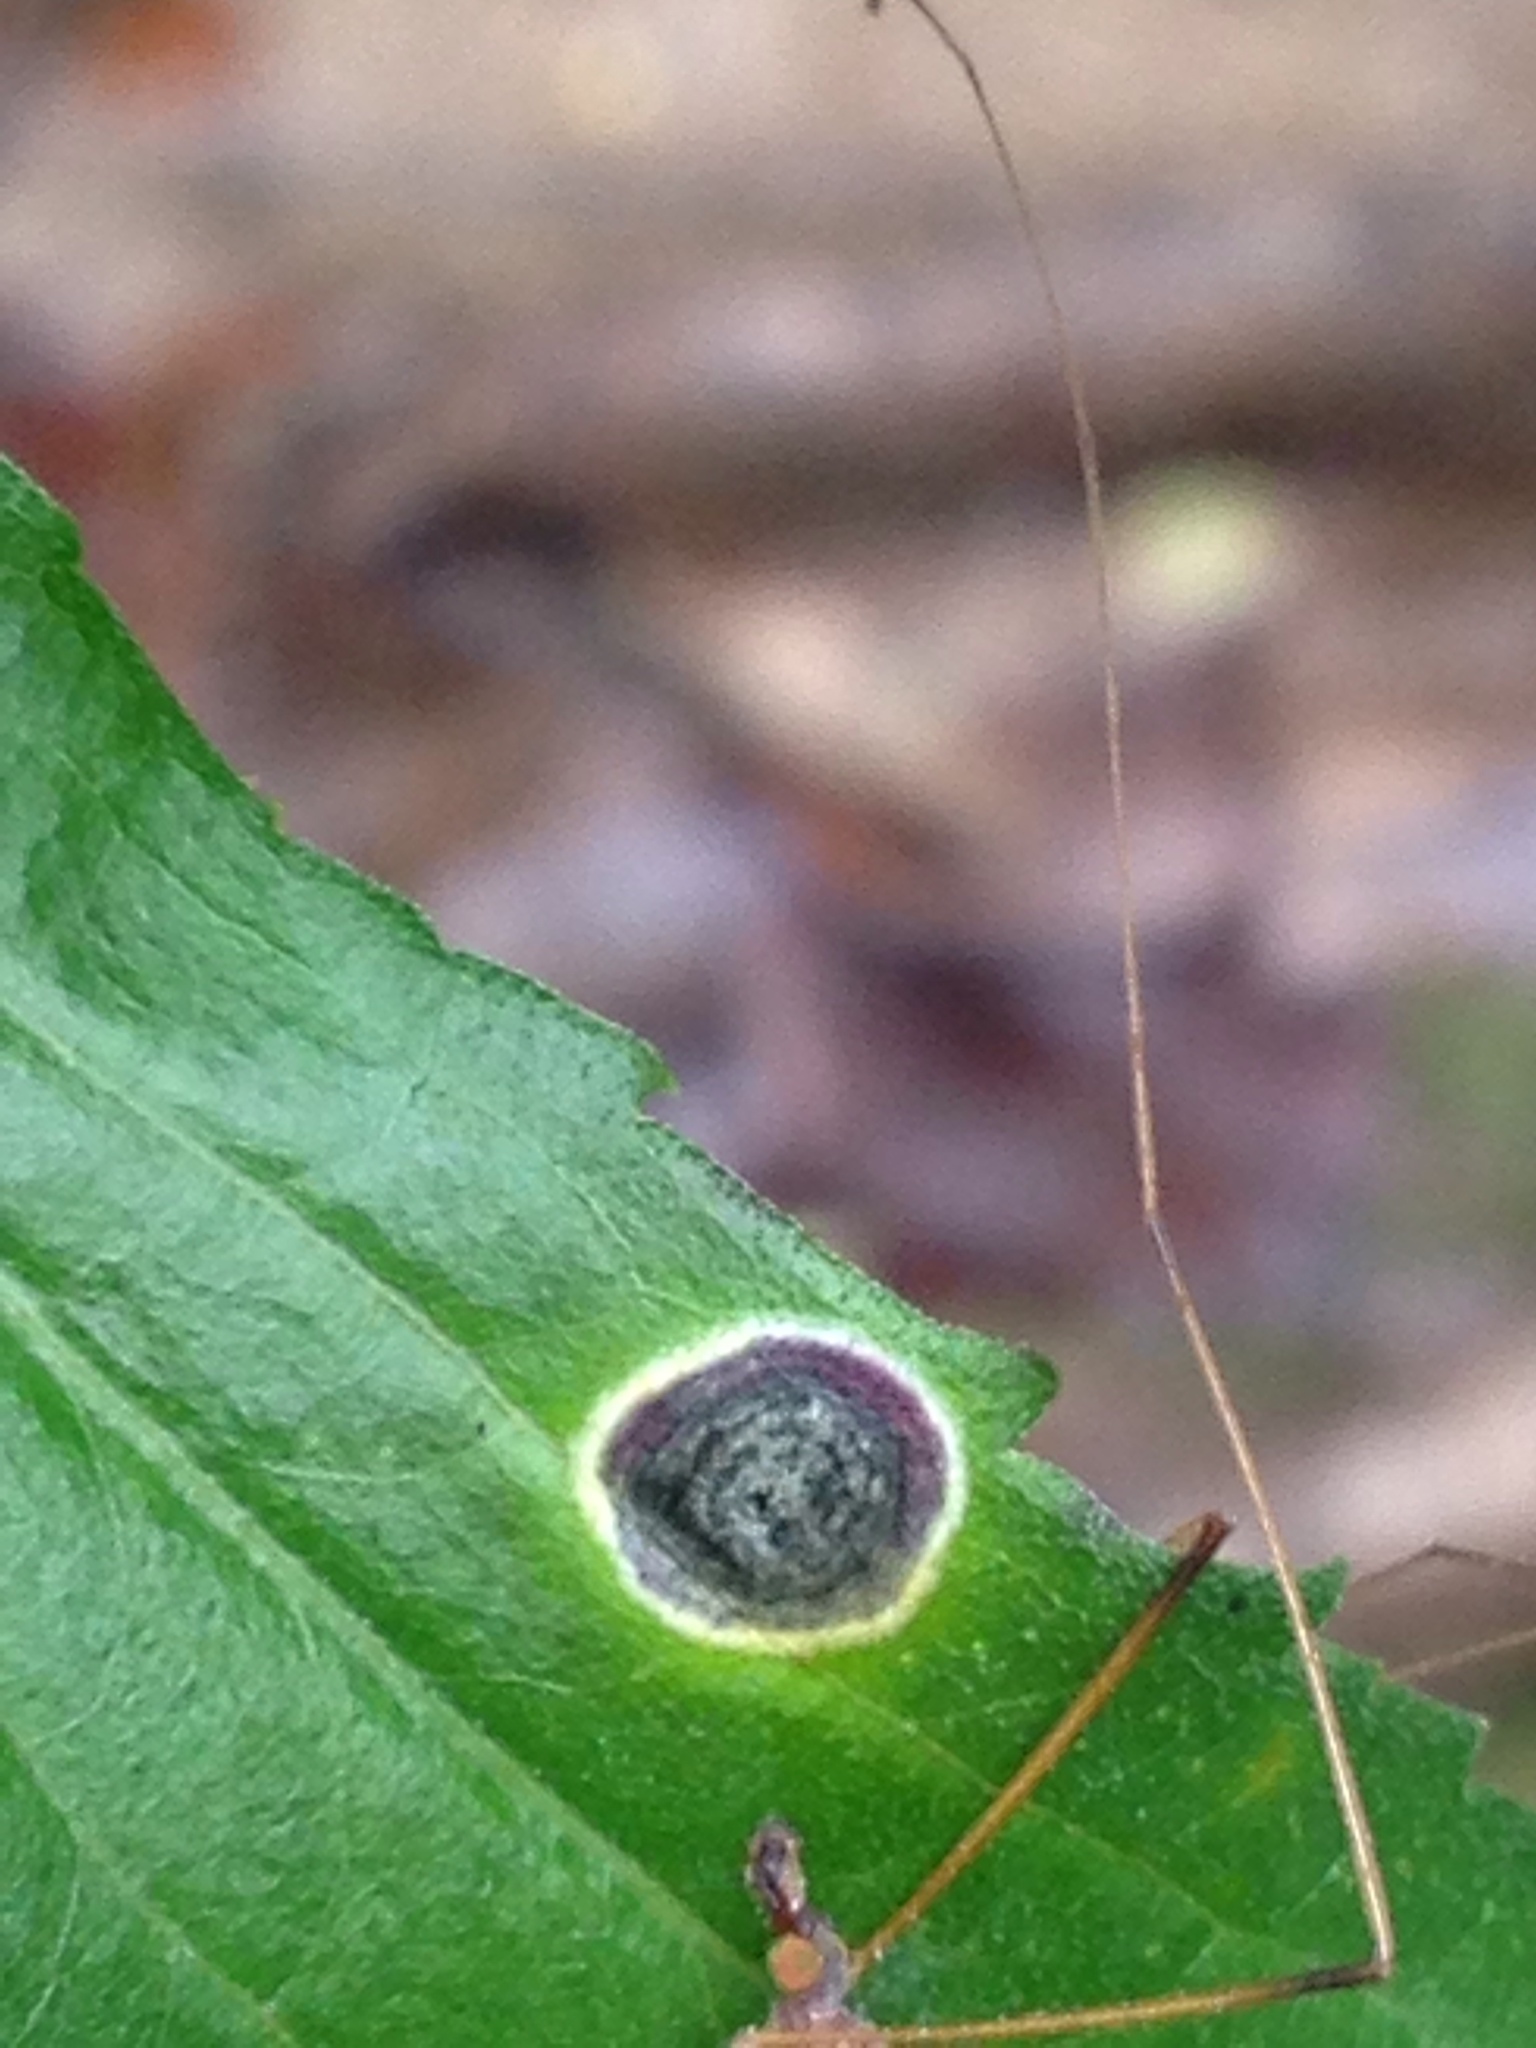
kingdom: Animalia
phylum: Arthropoda
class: Insecta
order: Diptera
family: Cecidomyiidae
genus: Asteromyia
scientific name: Asteromyia carbonifera
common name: Carbonifera goldenrod gall midge
